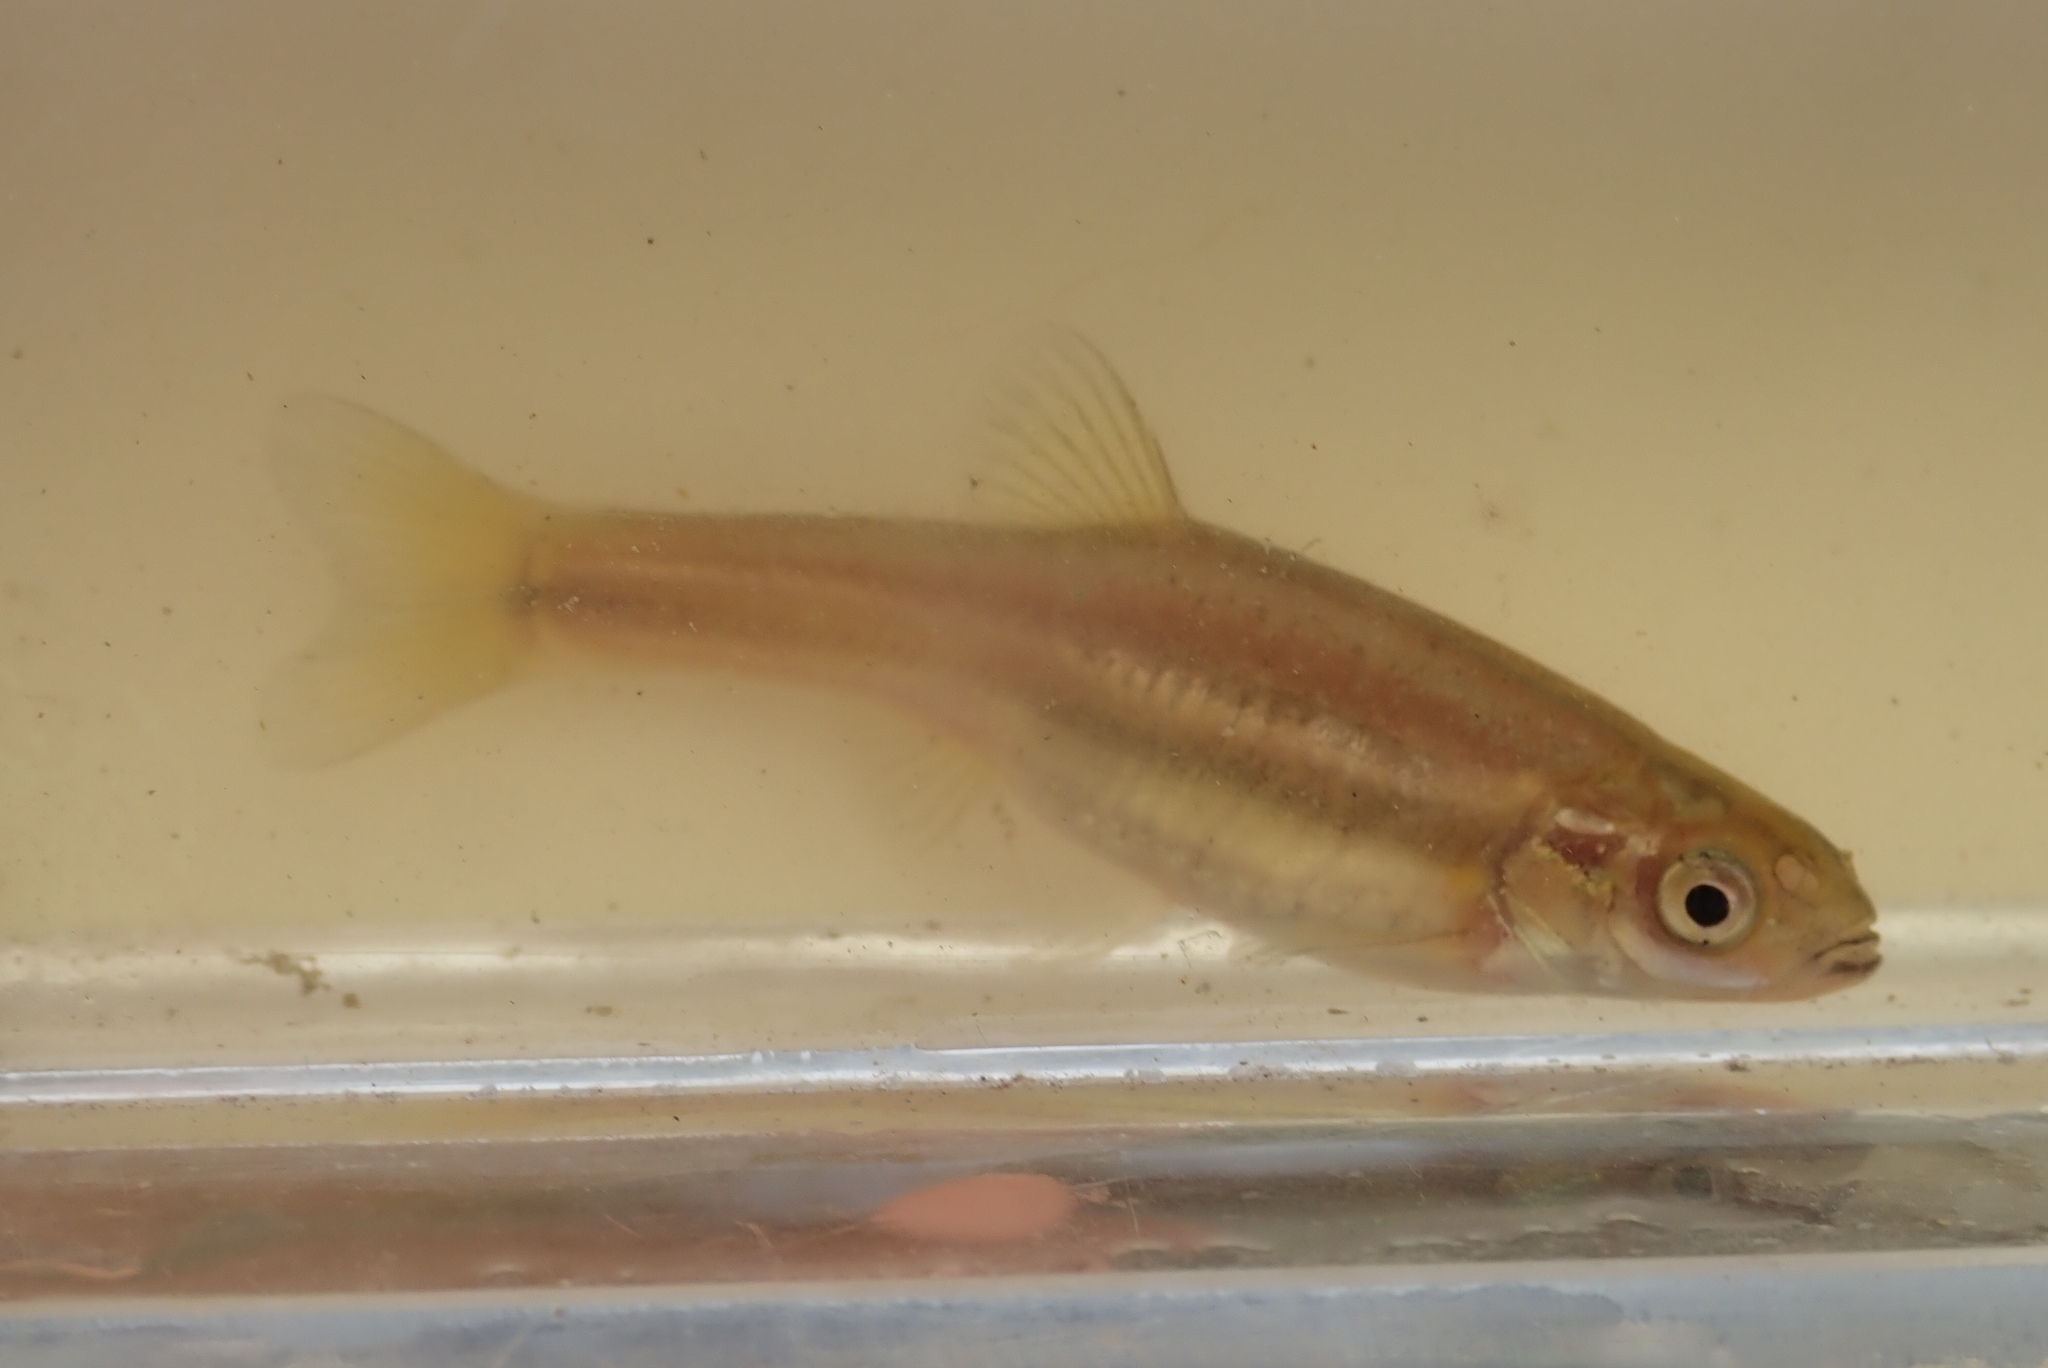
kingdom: Animalia
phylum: Chordata
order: Cypriniformes
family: Cyprinidae
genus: Chrosomus
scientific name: Chrosomus eos
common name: Northern redbelly dace
